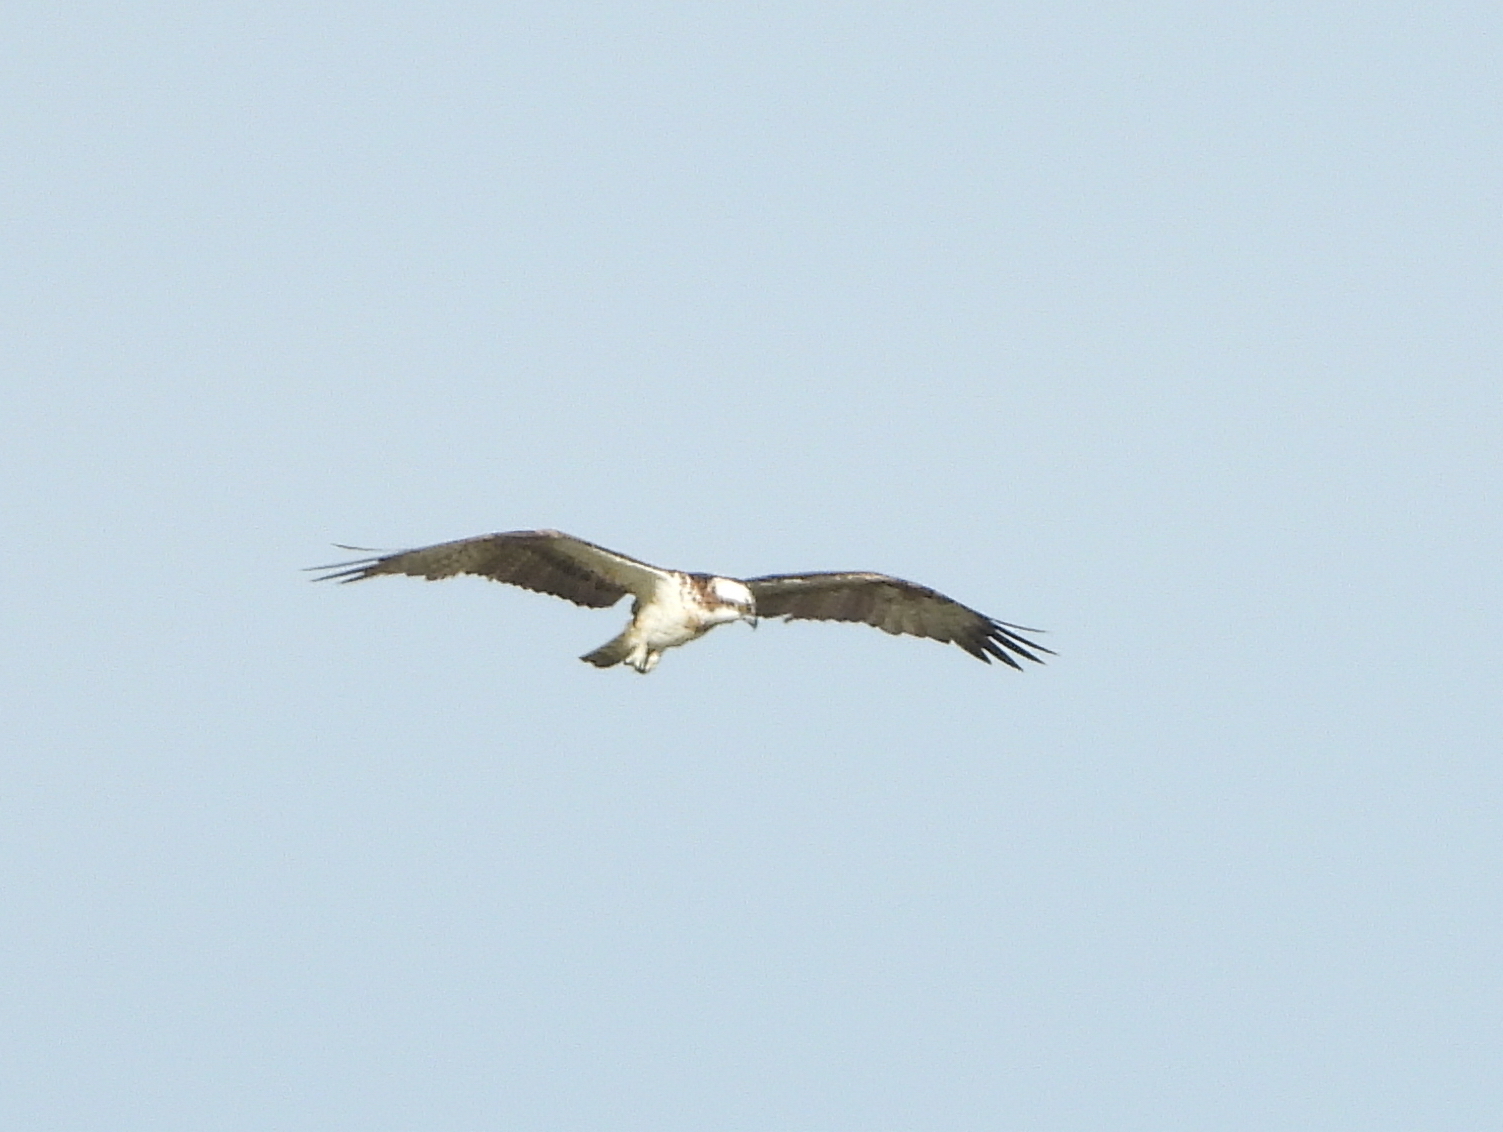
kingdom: Animalia
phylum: Chordata
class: Aves
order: Accipitriformes
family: Pandionidae
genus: Pandion
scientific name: Pandion haliaetus
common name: Osprey
